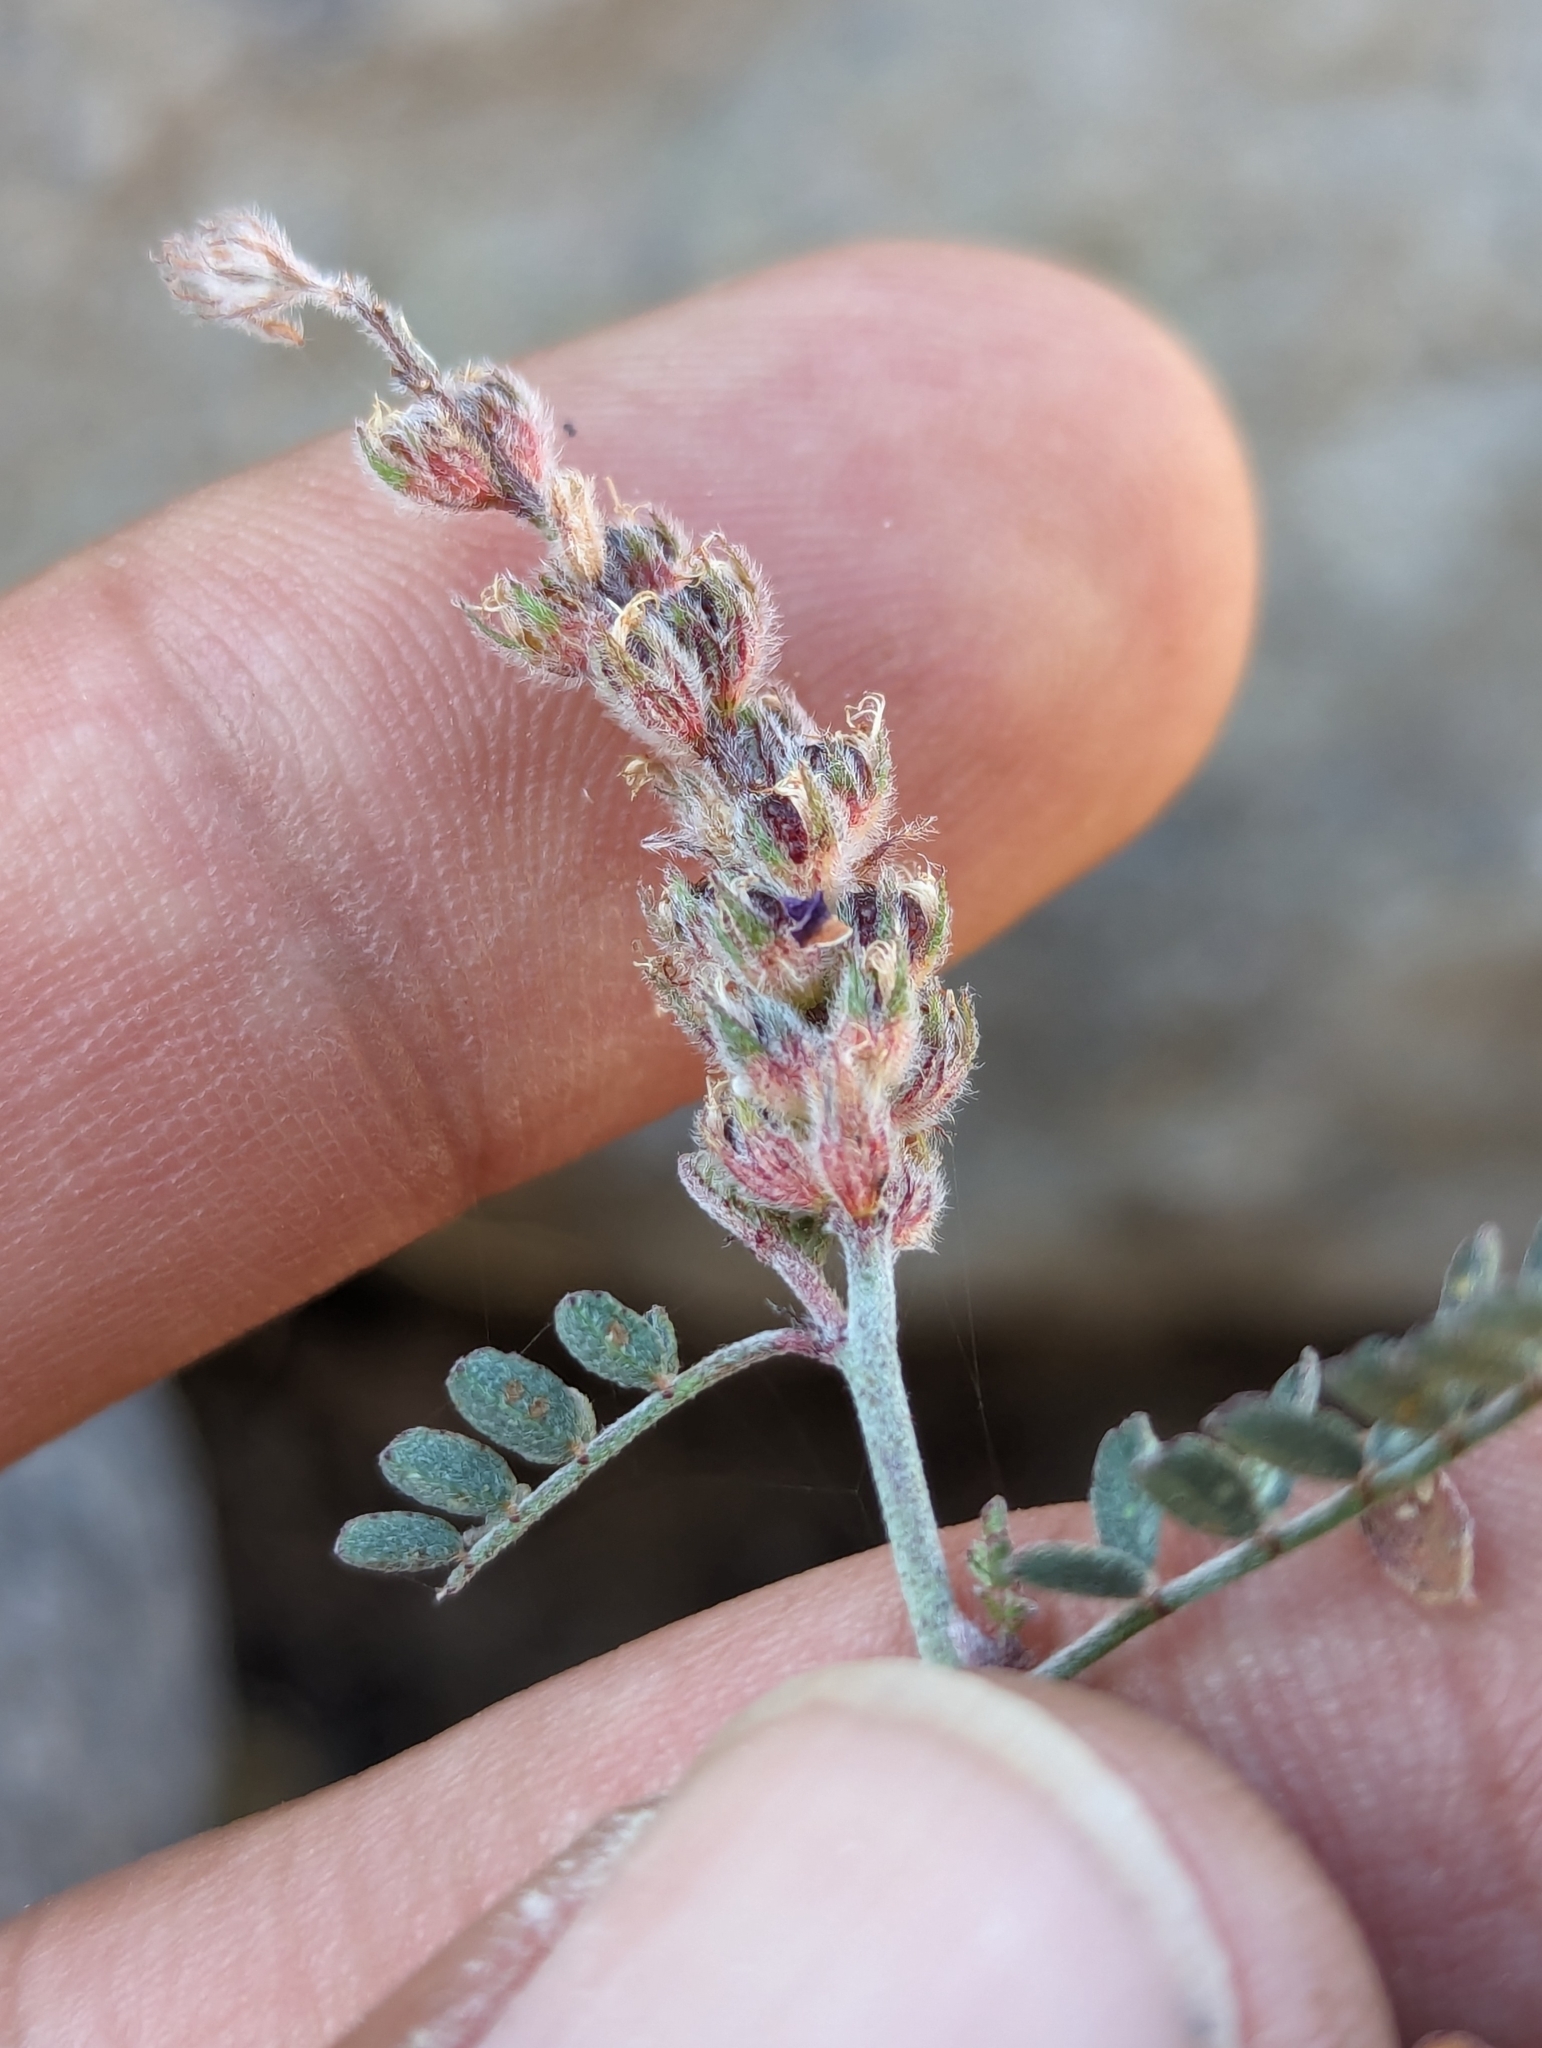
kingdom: Plantae
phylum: Tracheophyta
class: Magnoliopsida
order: Fabales
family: Fabaceae
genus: Marina
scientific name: Marina parryi
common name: Parry's marina
